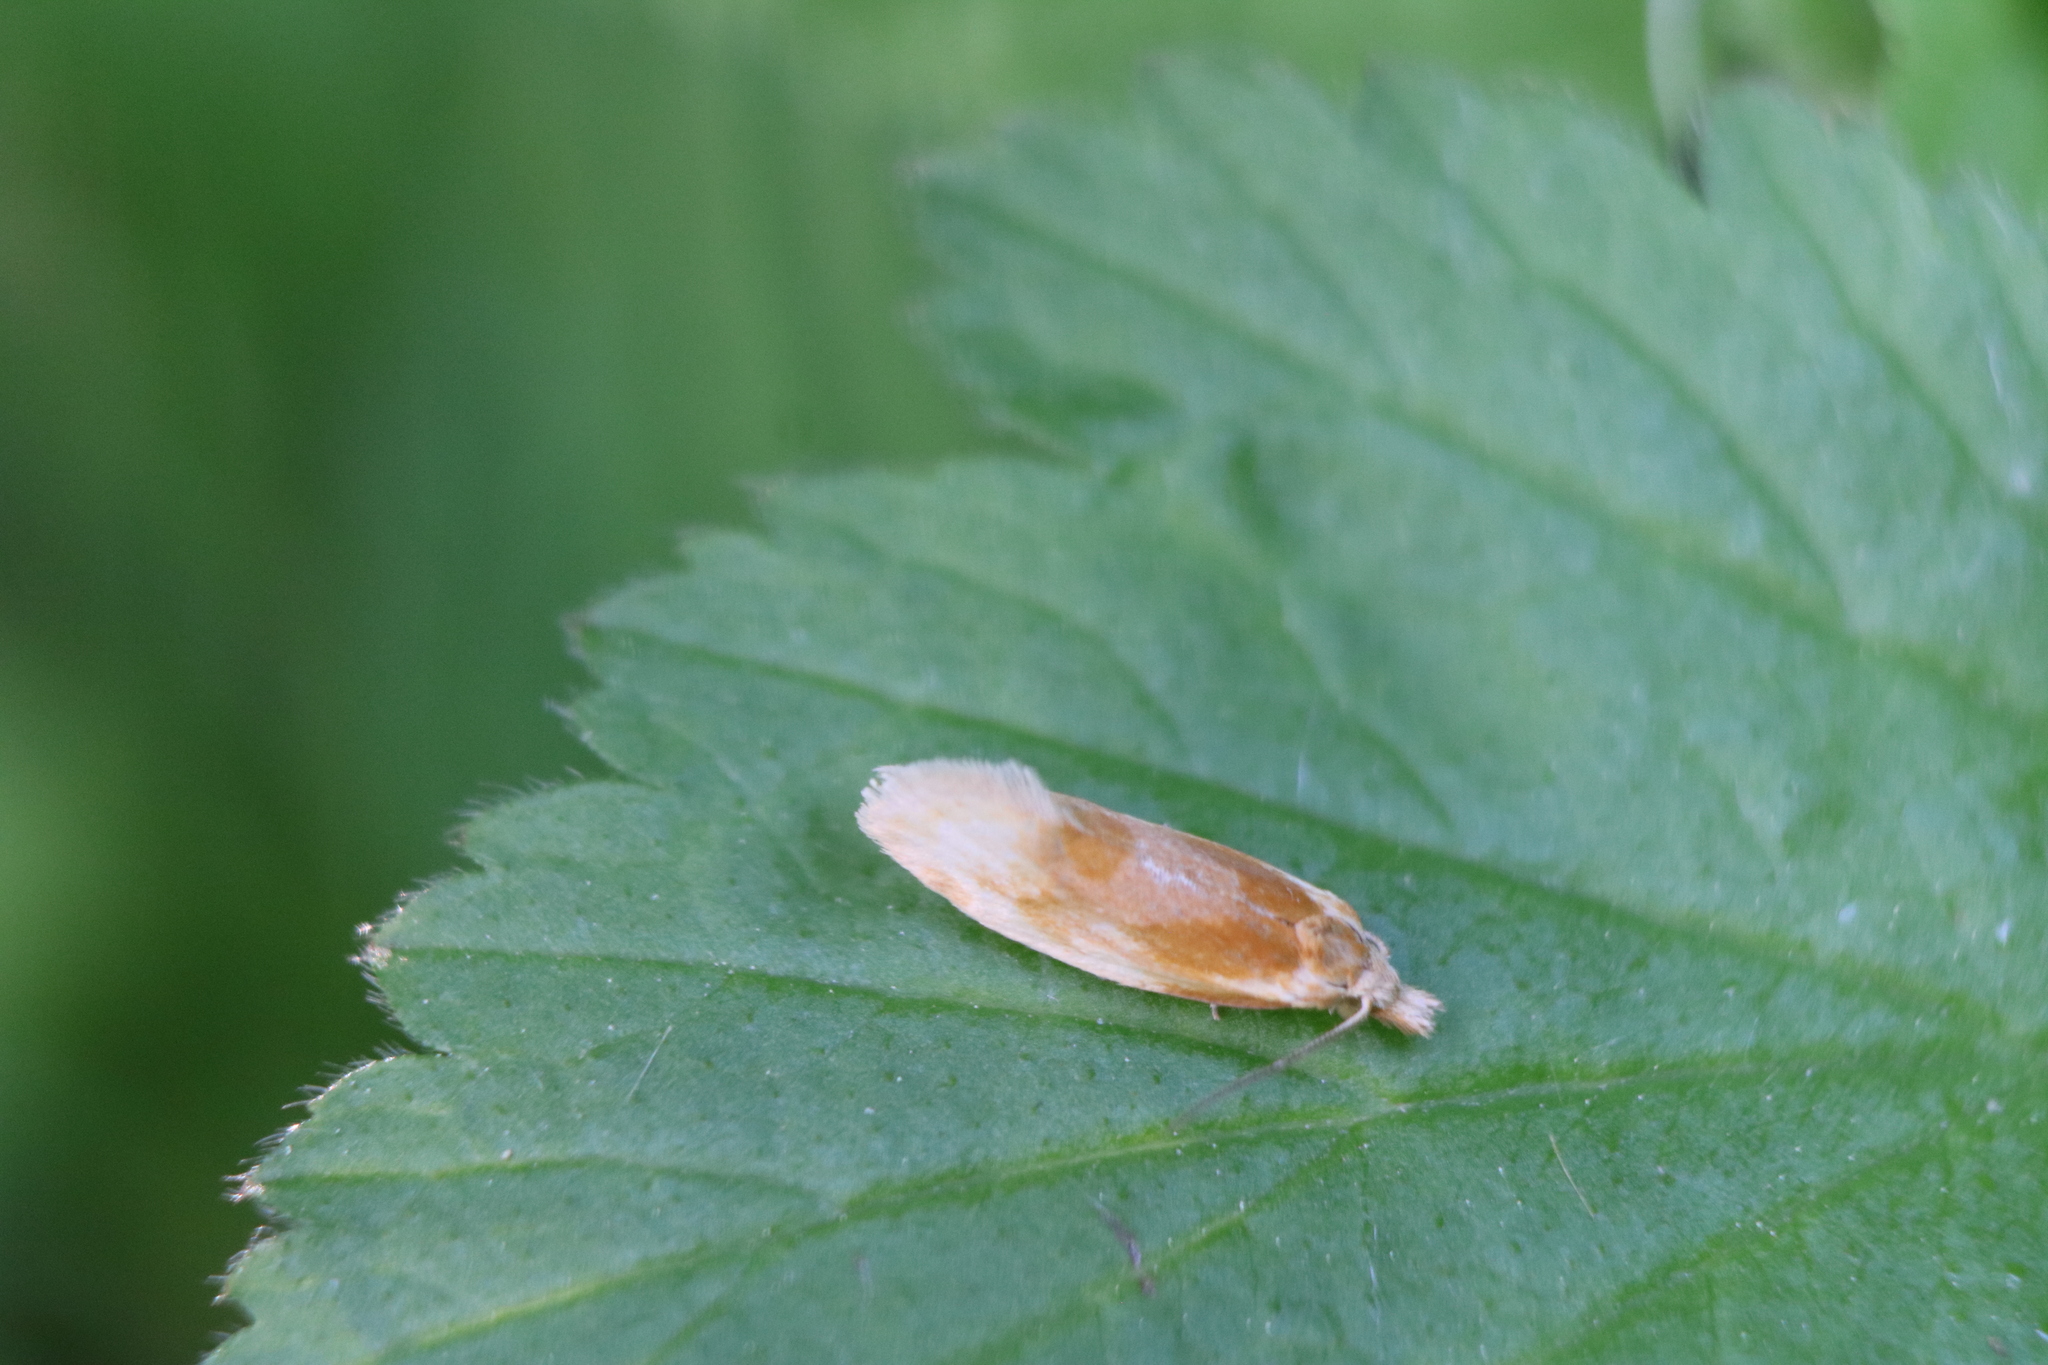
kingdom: Animalia
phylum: Arthropoda
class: Insecta
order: Lepidoptera
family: Tortricidae
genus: Aethes
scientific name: Aethes floccosana
